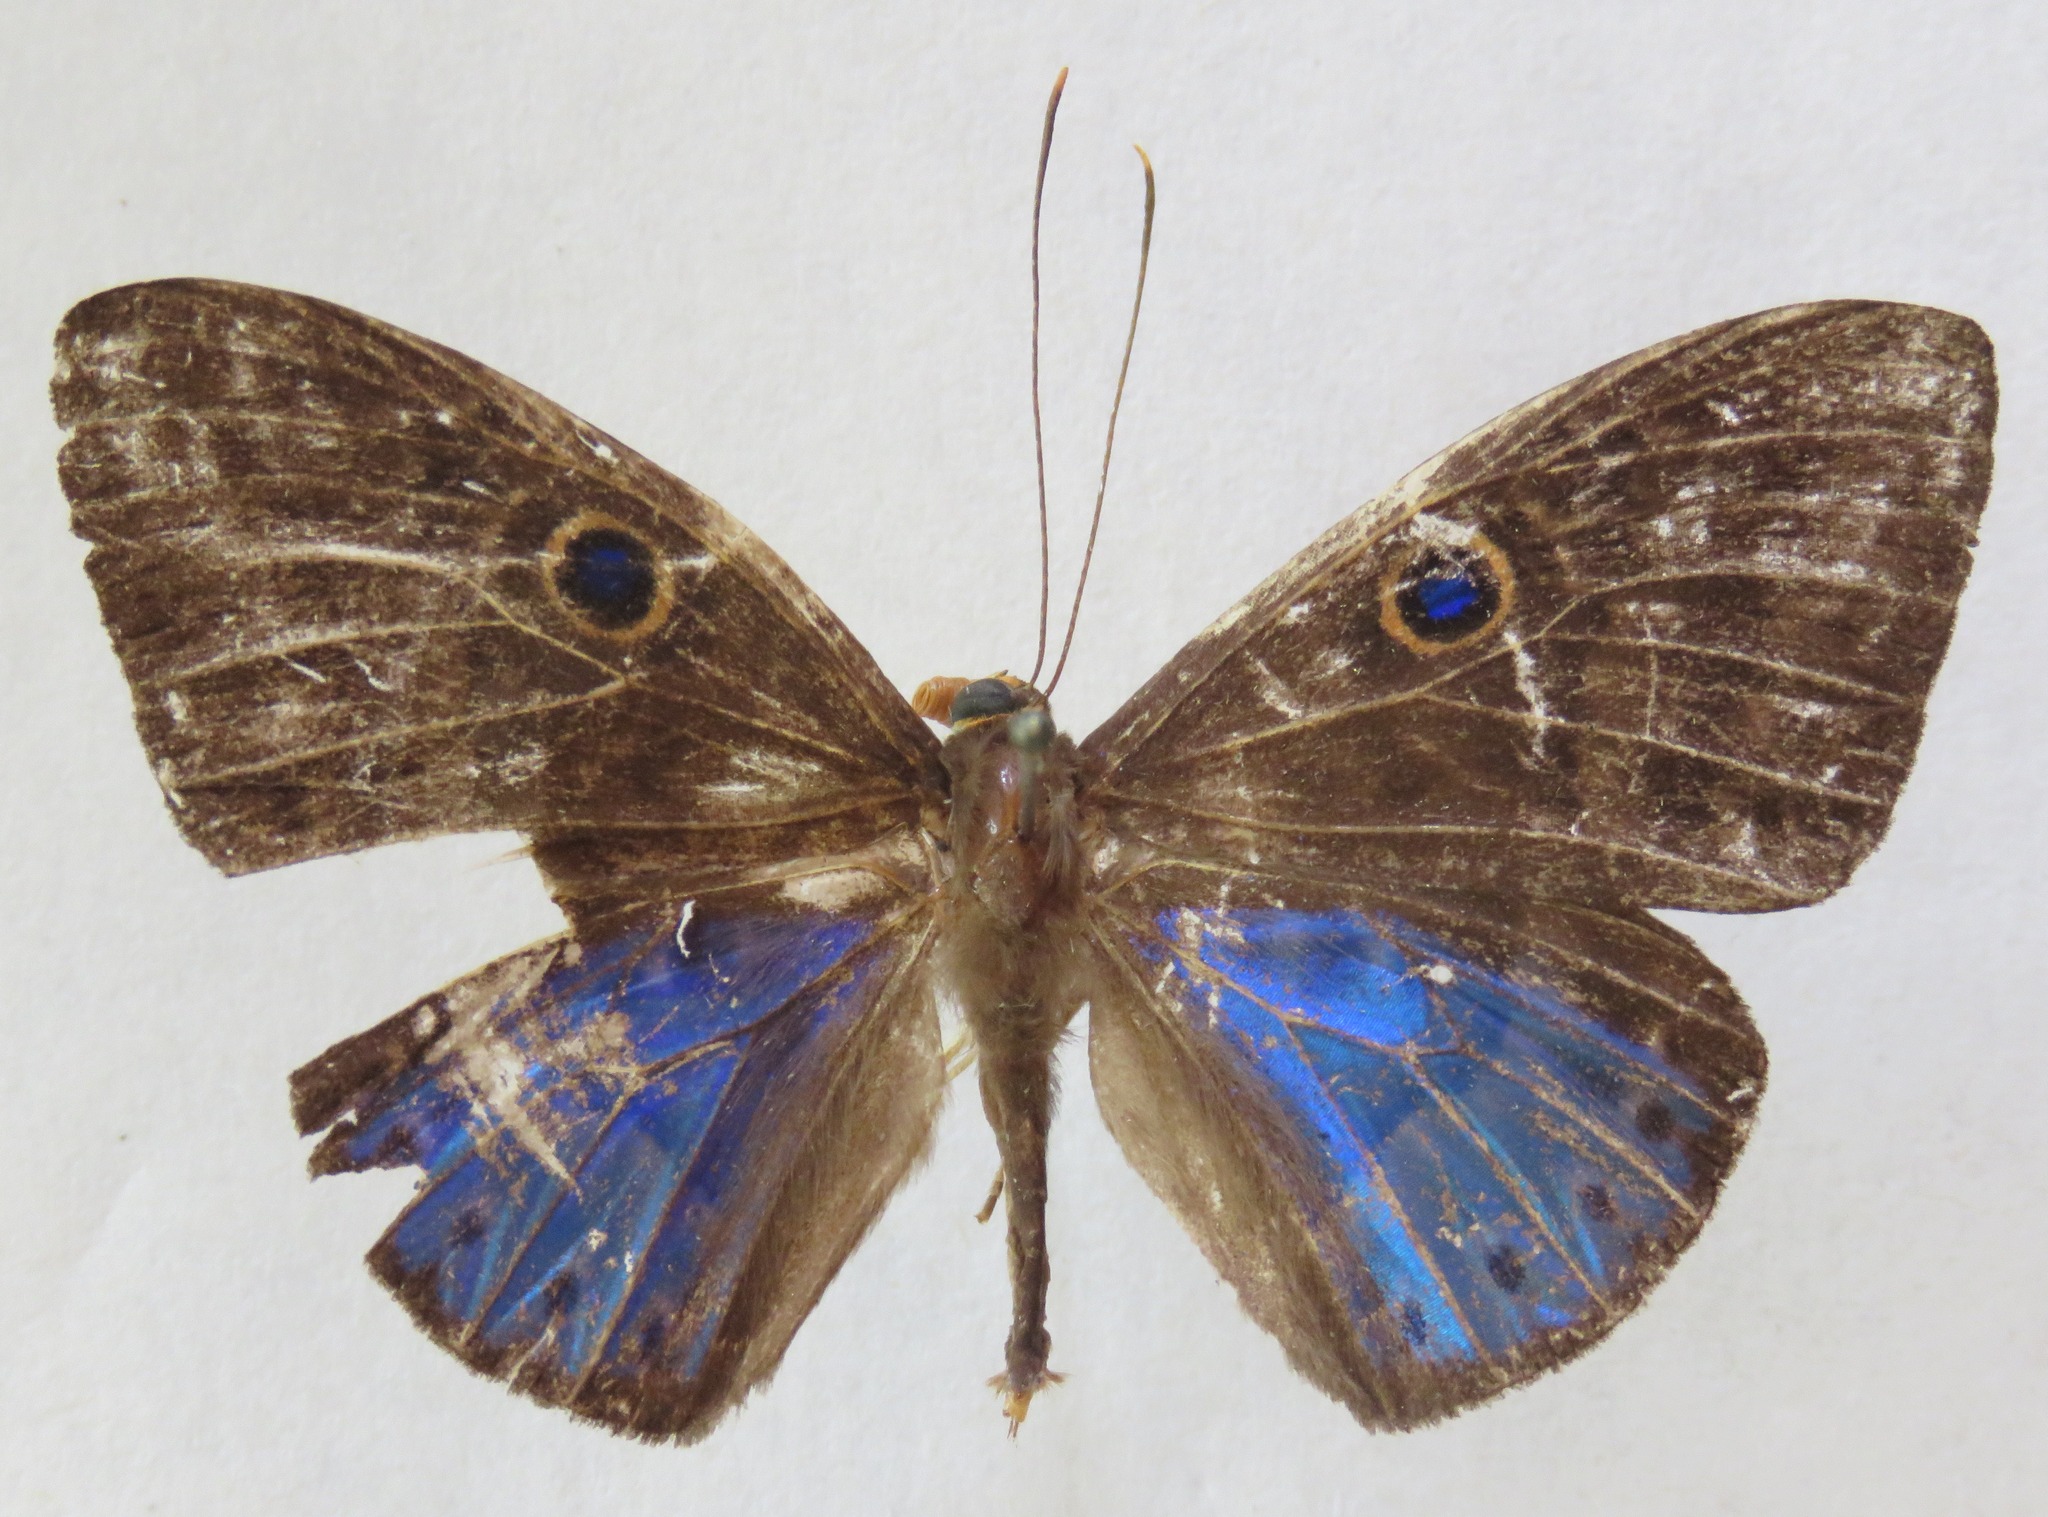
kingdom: Animalia
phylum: Cnidaria
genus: Eurybia
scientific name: Eurybia lycisca
